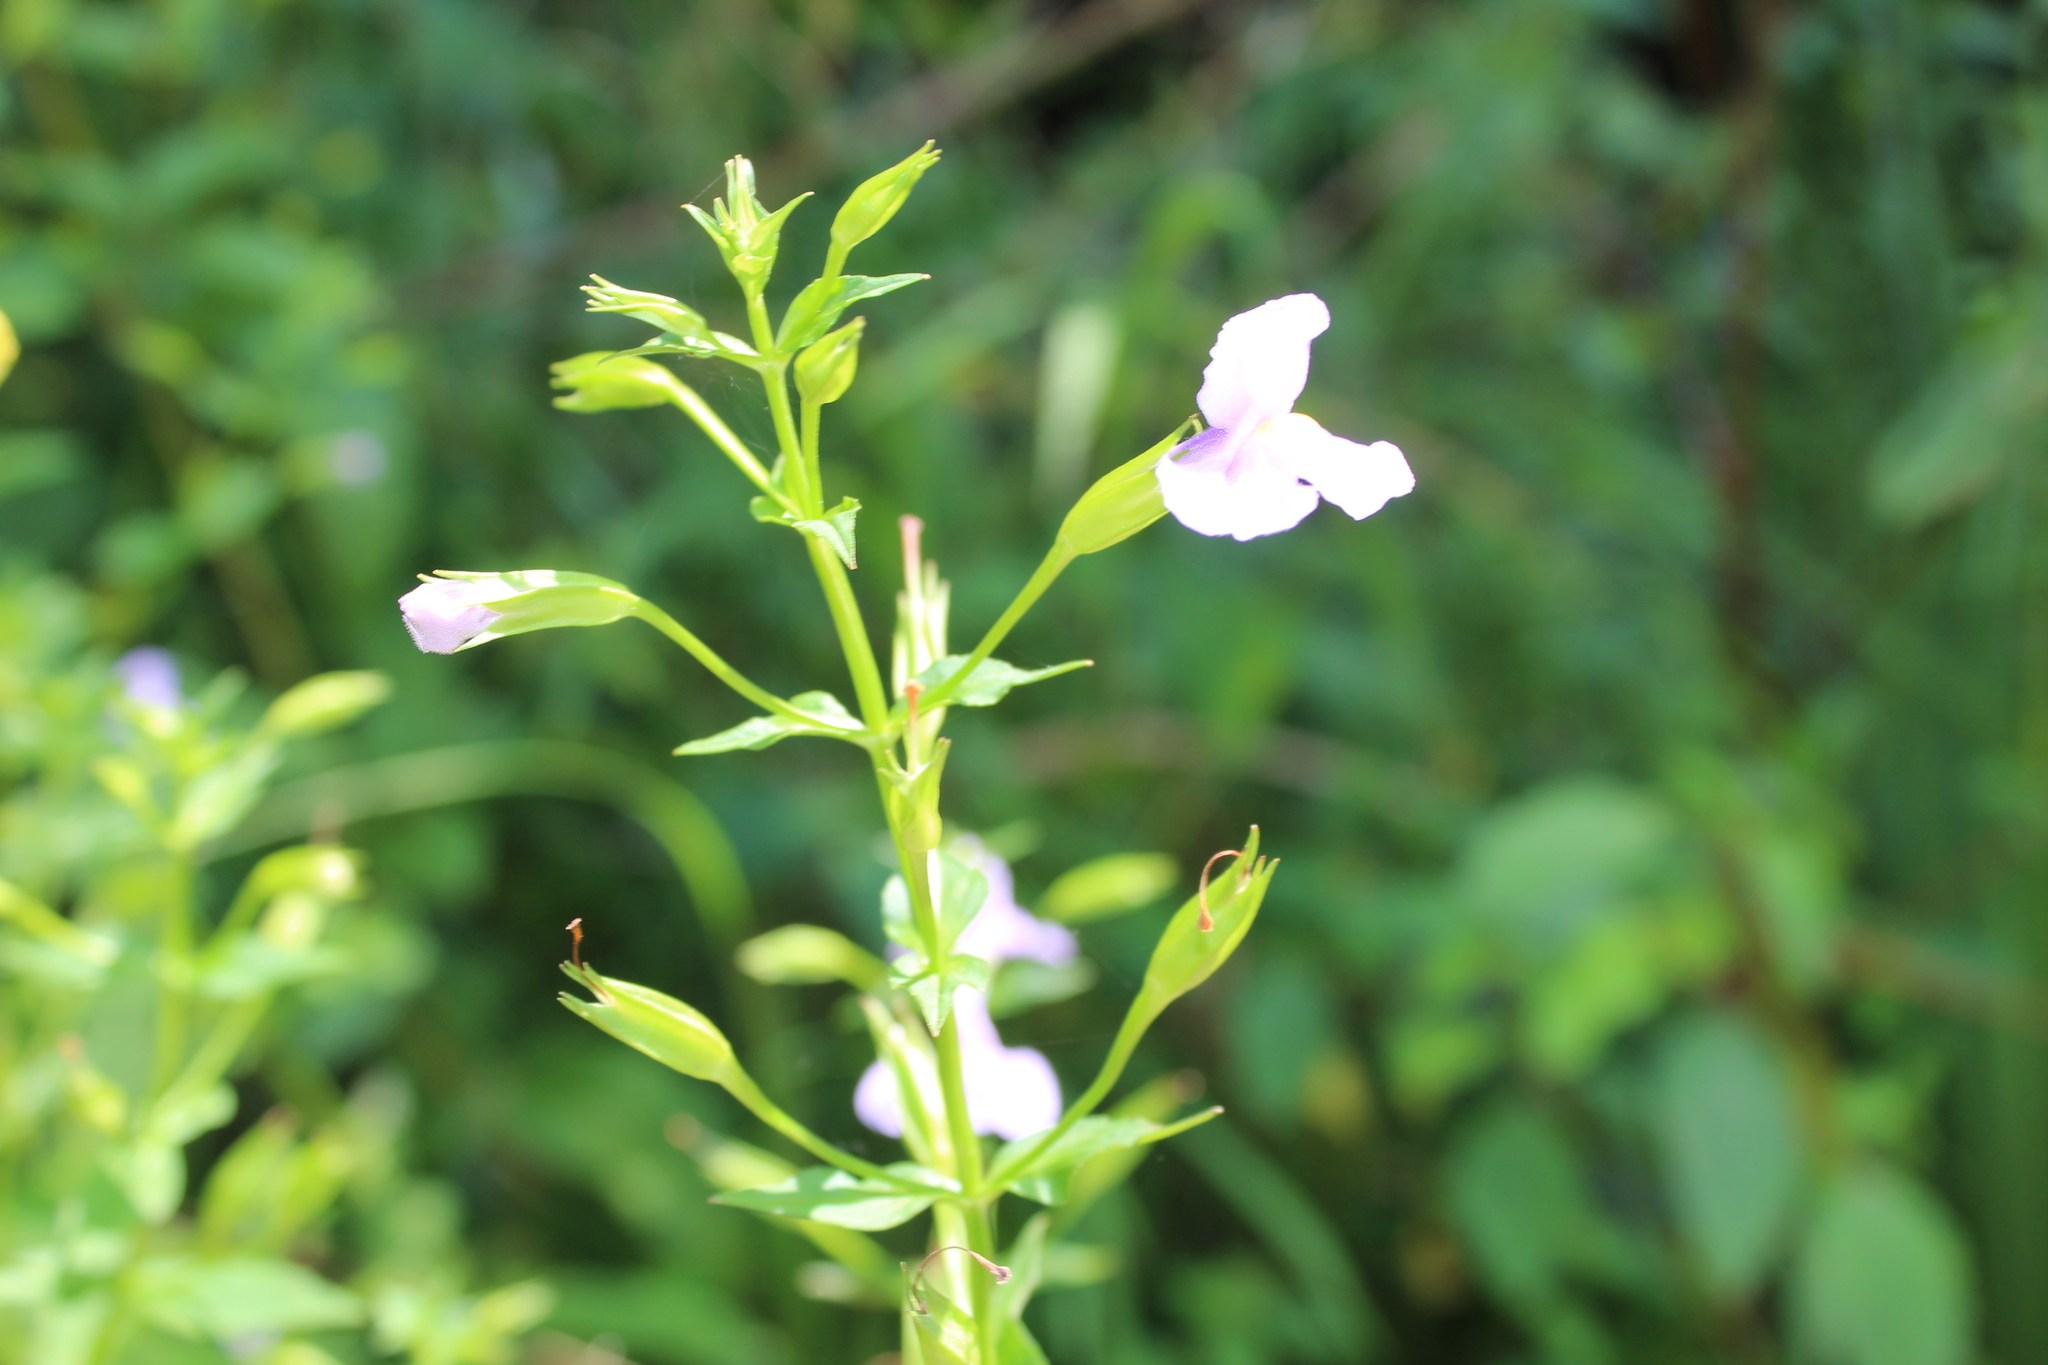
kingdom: Plantae
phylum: Tracheophyta
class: Magnoliopsida
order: Lamiales
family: Phrymaceae
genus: Mimulus
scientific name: Mimulus ringens
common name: Allegheny monkeyflower
